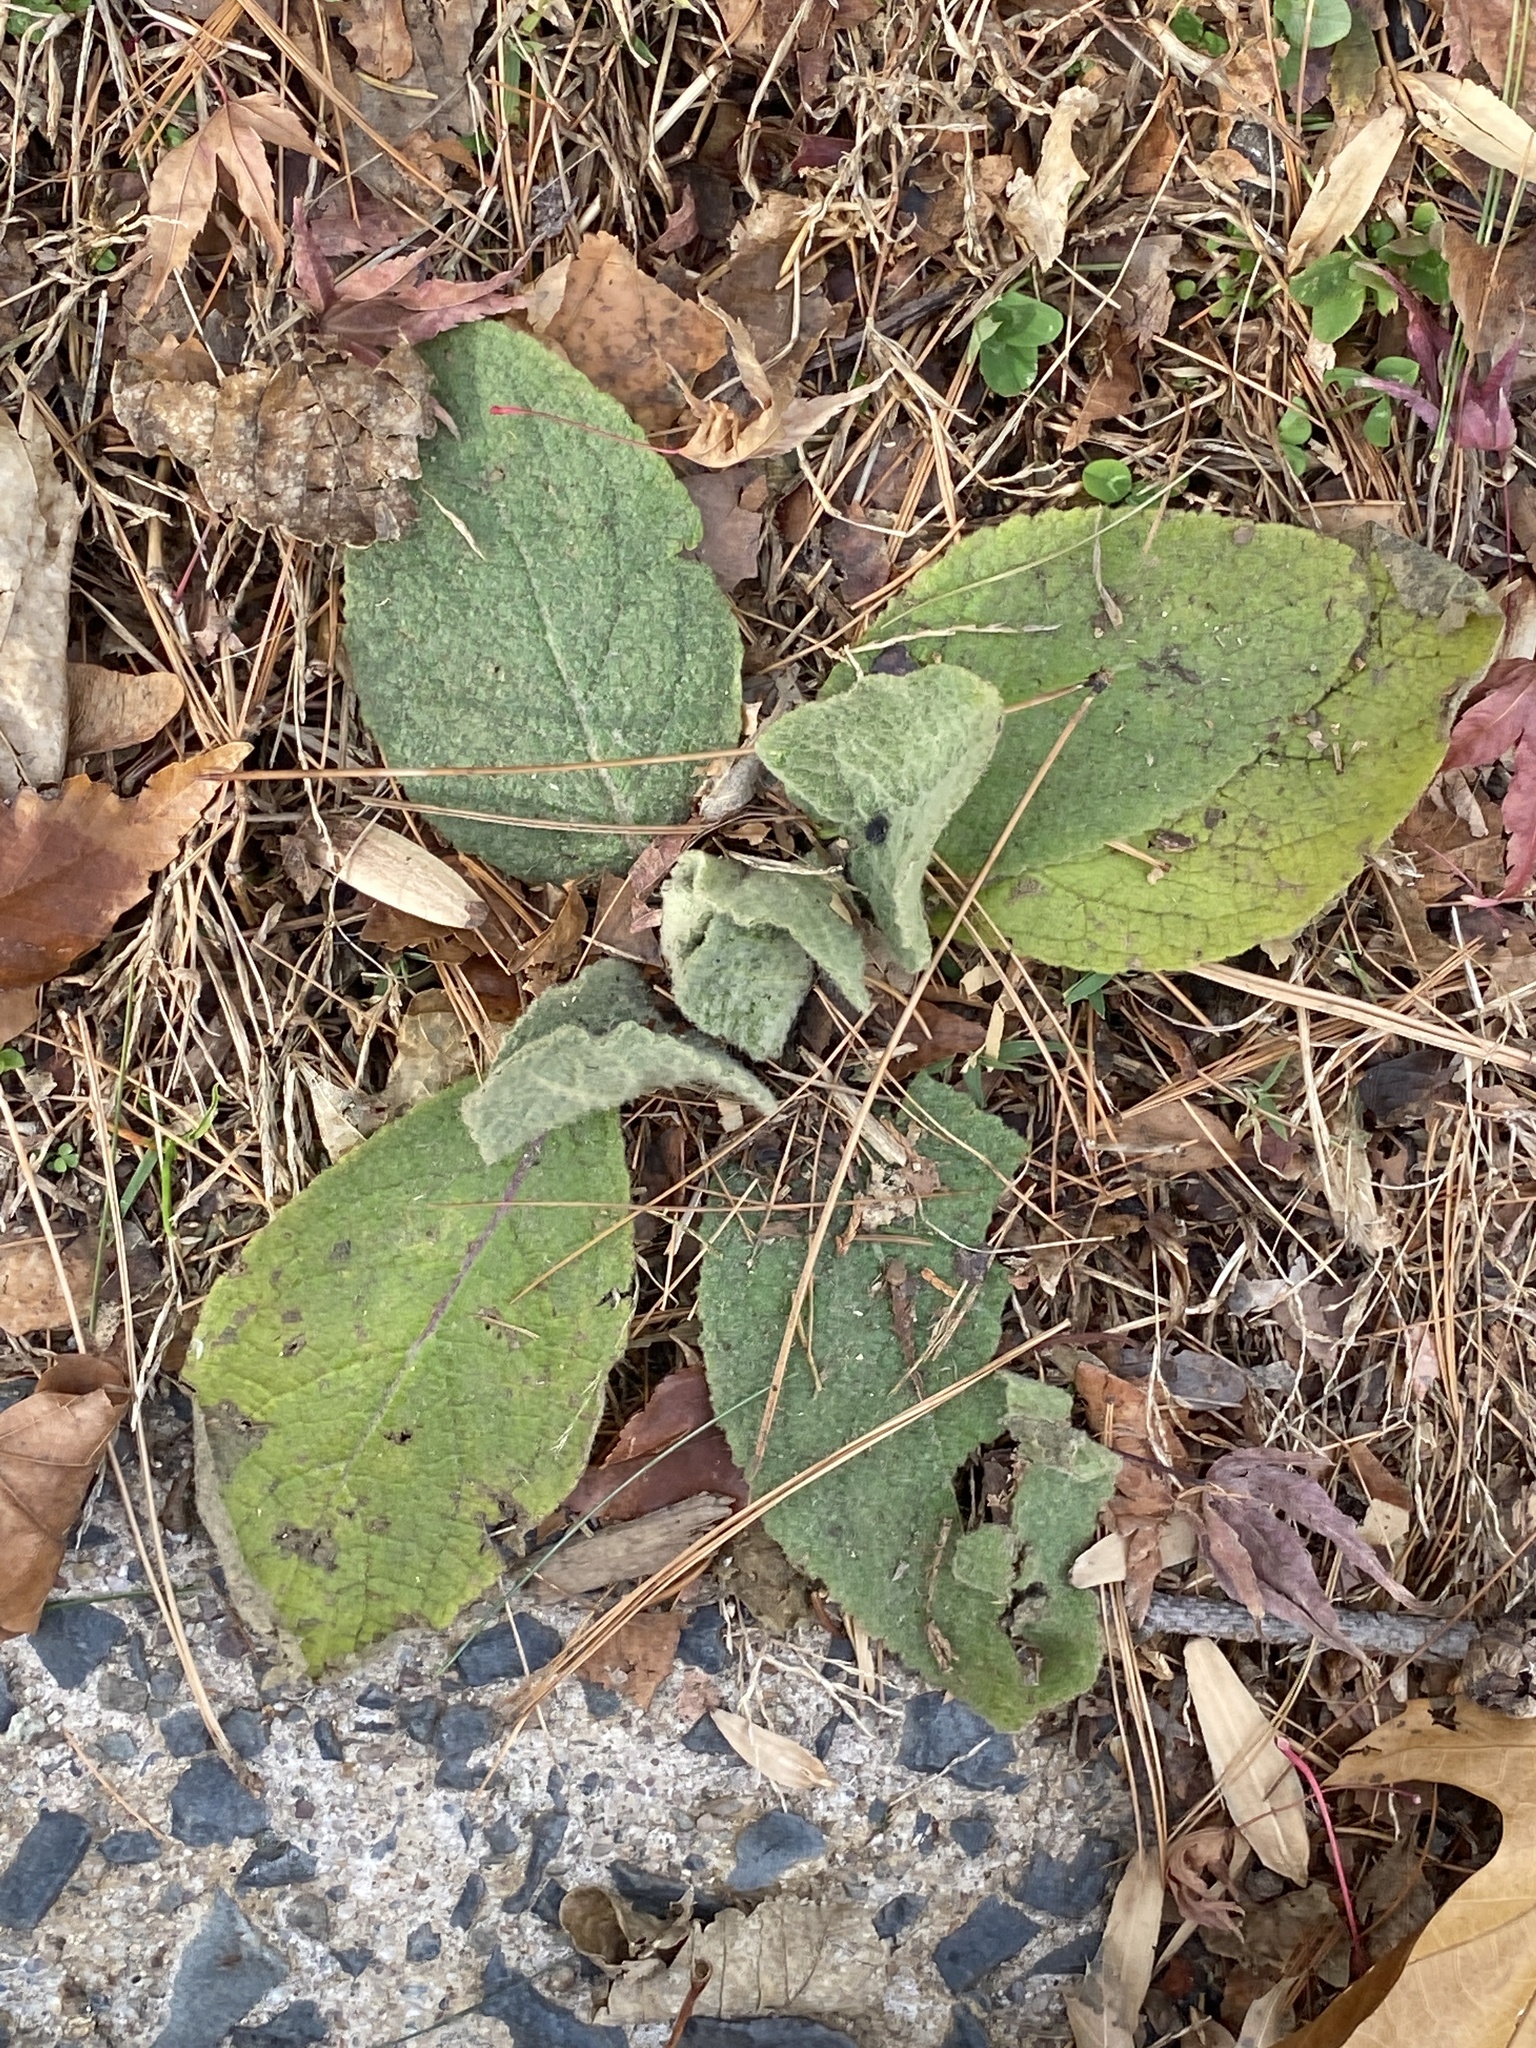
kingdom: Plantae
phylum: Tracheophyta
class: Magnoliopsida
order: Lamiales
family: Scrophulariaceae
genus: Verbascum
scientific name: Verbascum thapsus
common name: Common mullein
